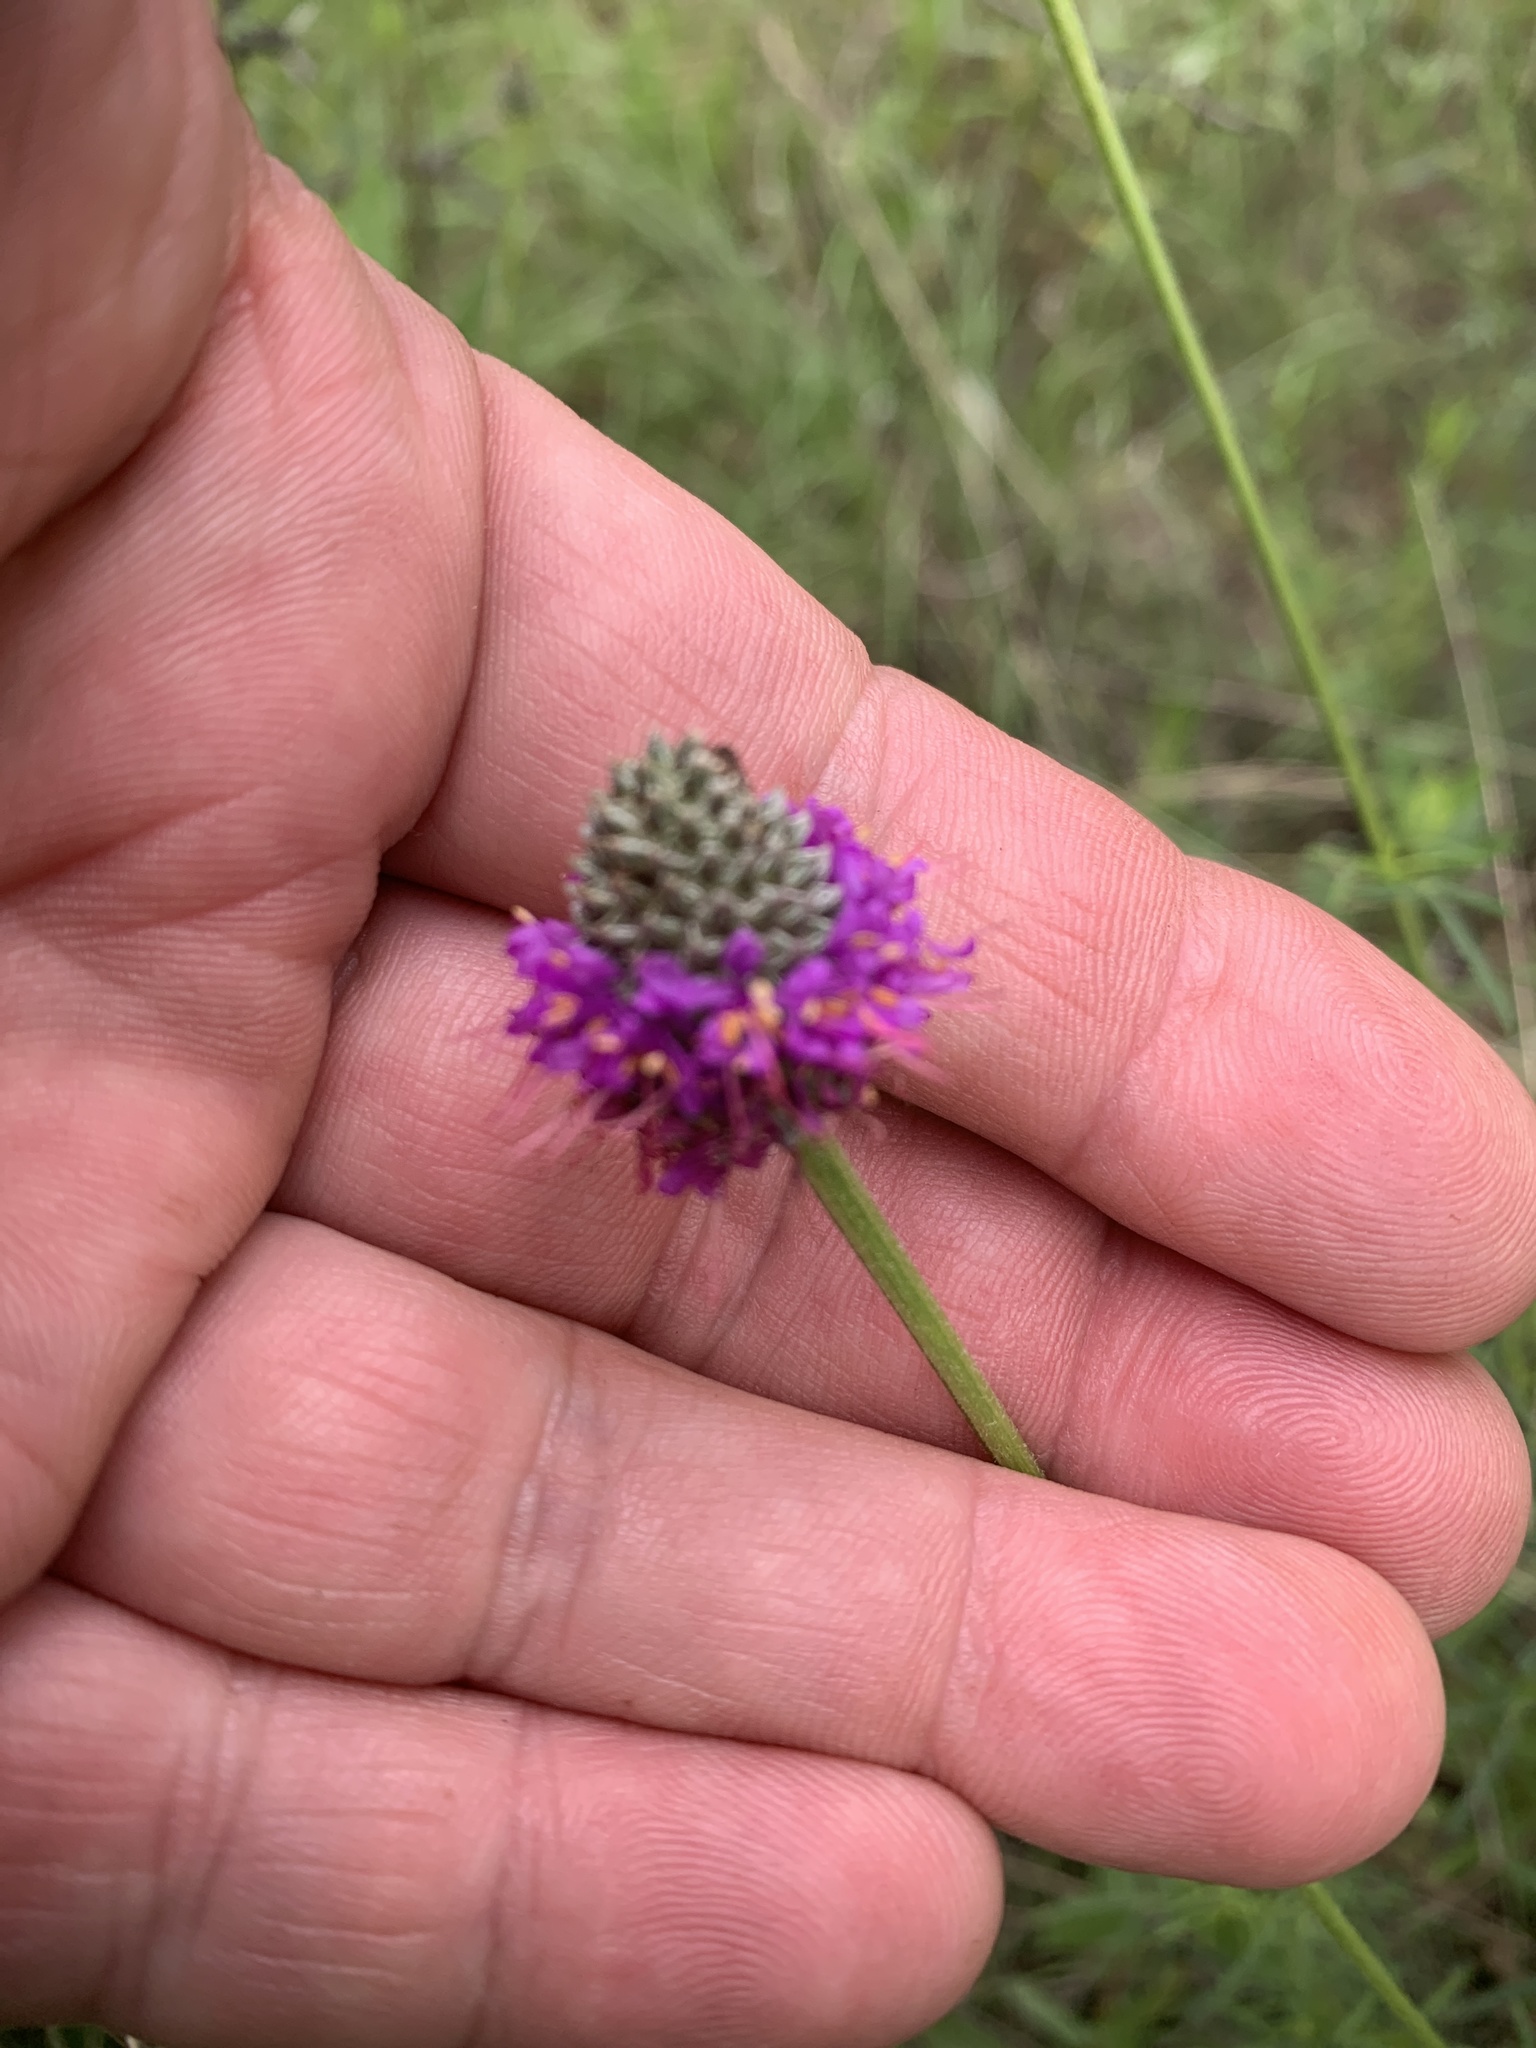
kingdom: Plantae
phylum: Tracheophyta
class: Magnoliopsida
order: Fabales
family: Fabaceae
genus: Dalea
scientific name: Dalea compacta
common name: Compact prairie-clover
